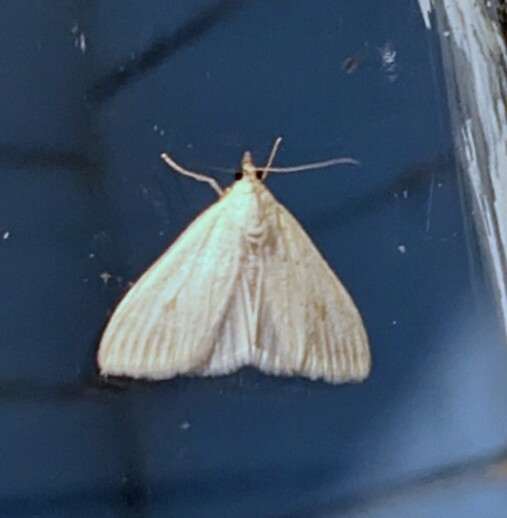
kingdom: Animalia
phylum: Arthropoda
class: Insecta
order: Lepidoptera
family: Crambidae
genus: Sitochroa
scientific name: Sitochroa palealis
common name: Greenish-yellow sitochroa moth
